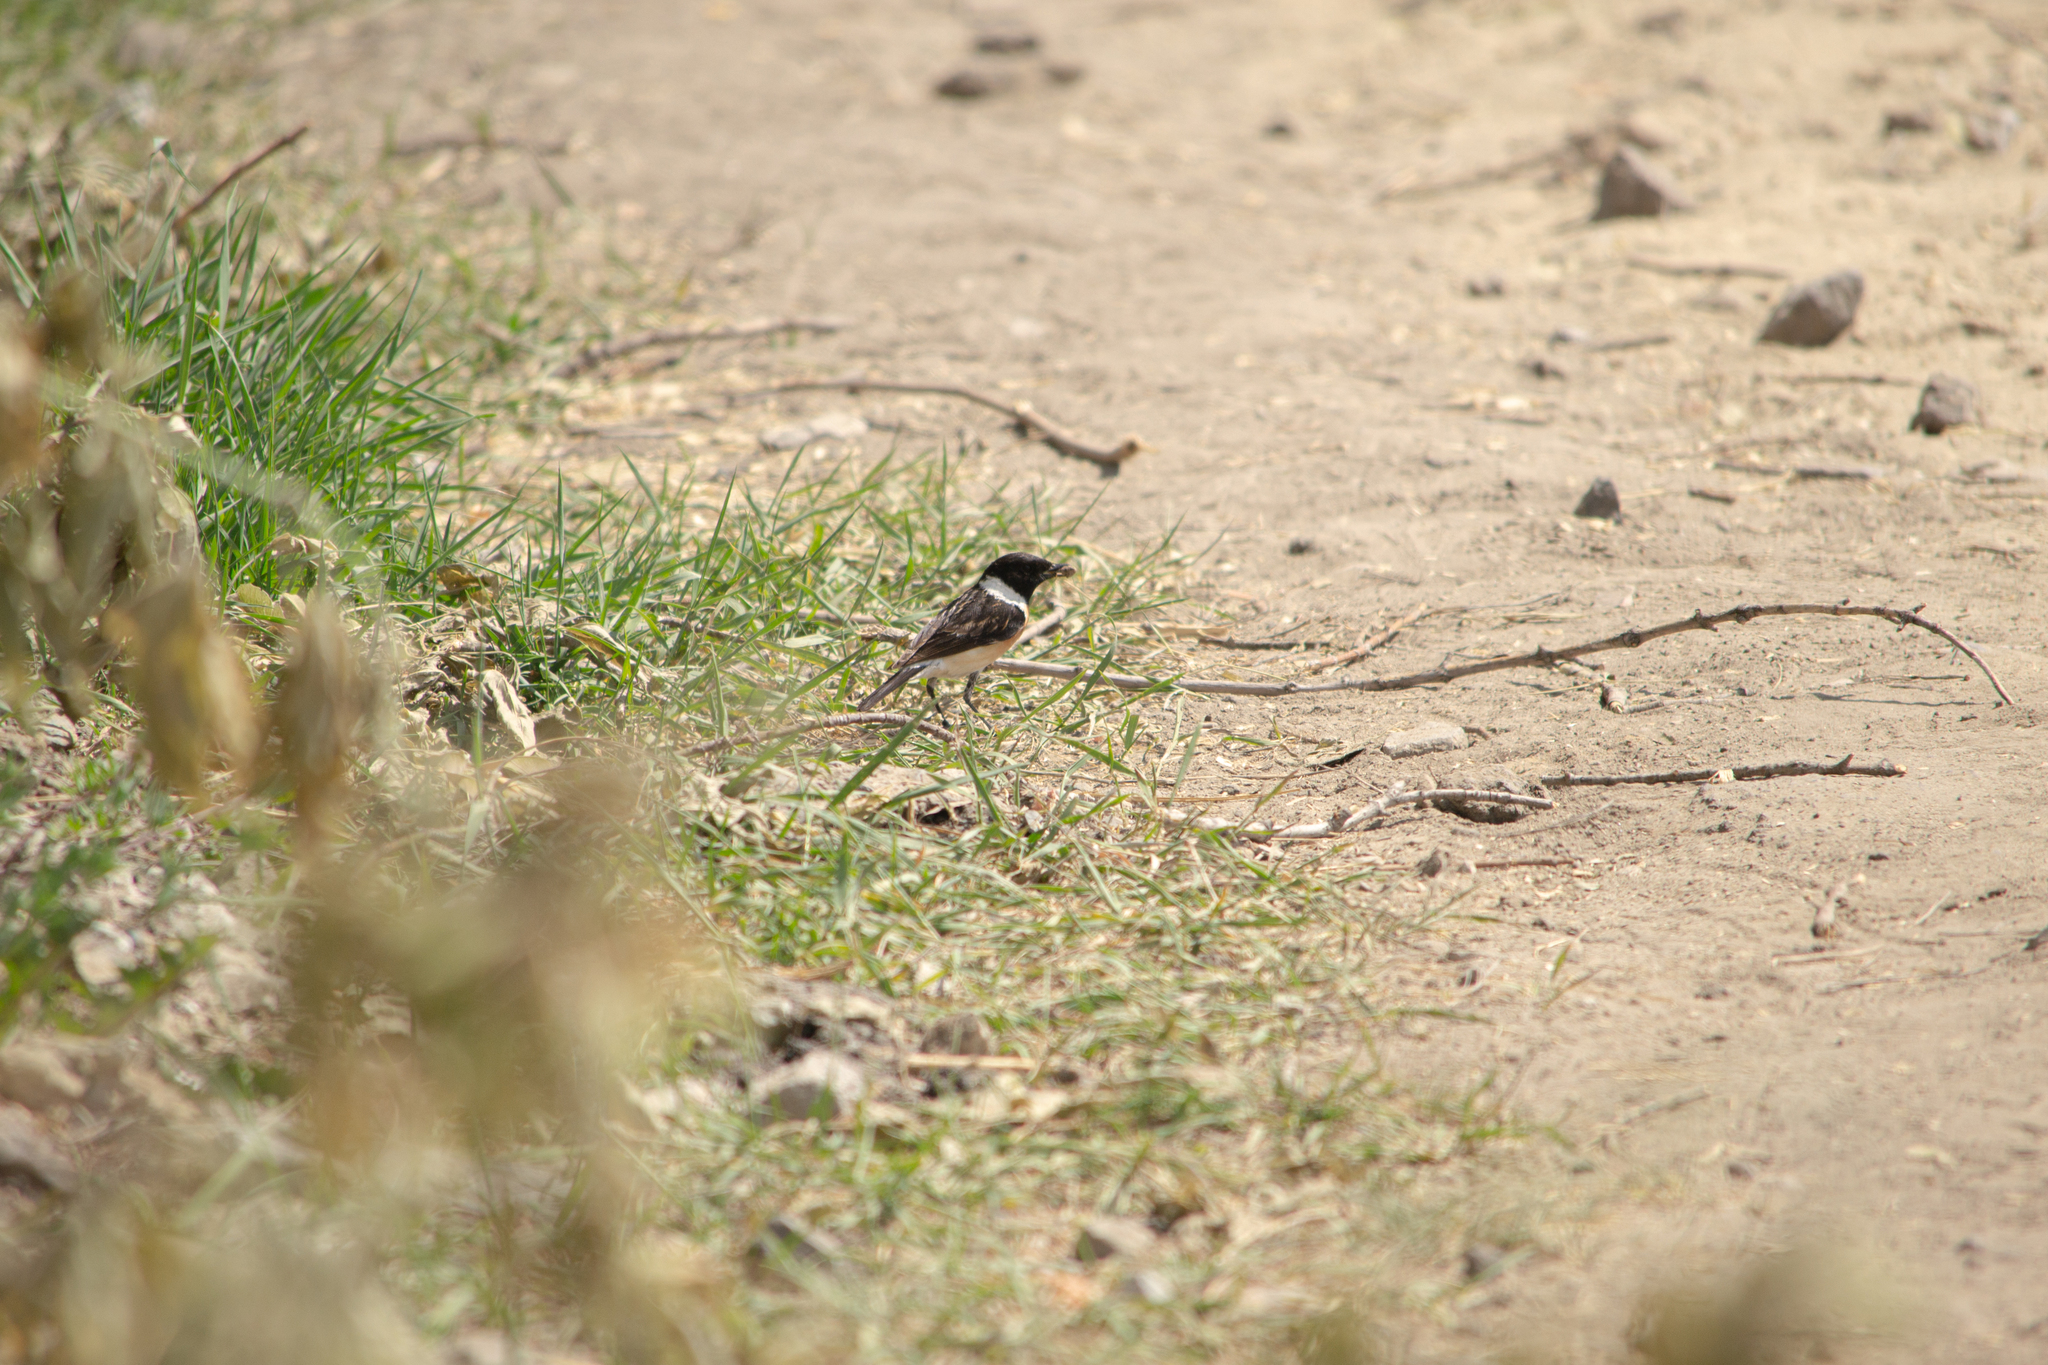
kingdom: Animalia
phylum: Chordata
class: Aves
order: Passeriformes
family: Muscicapidae
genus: Saxicola
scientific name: Saxicola maurus
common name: Siberian stonechat
